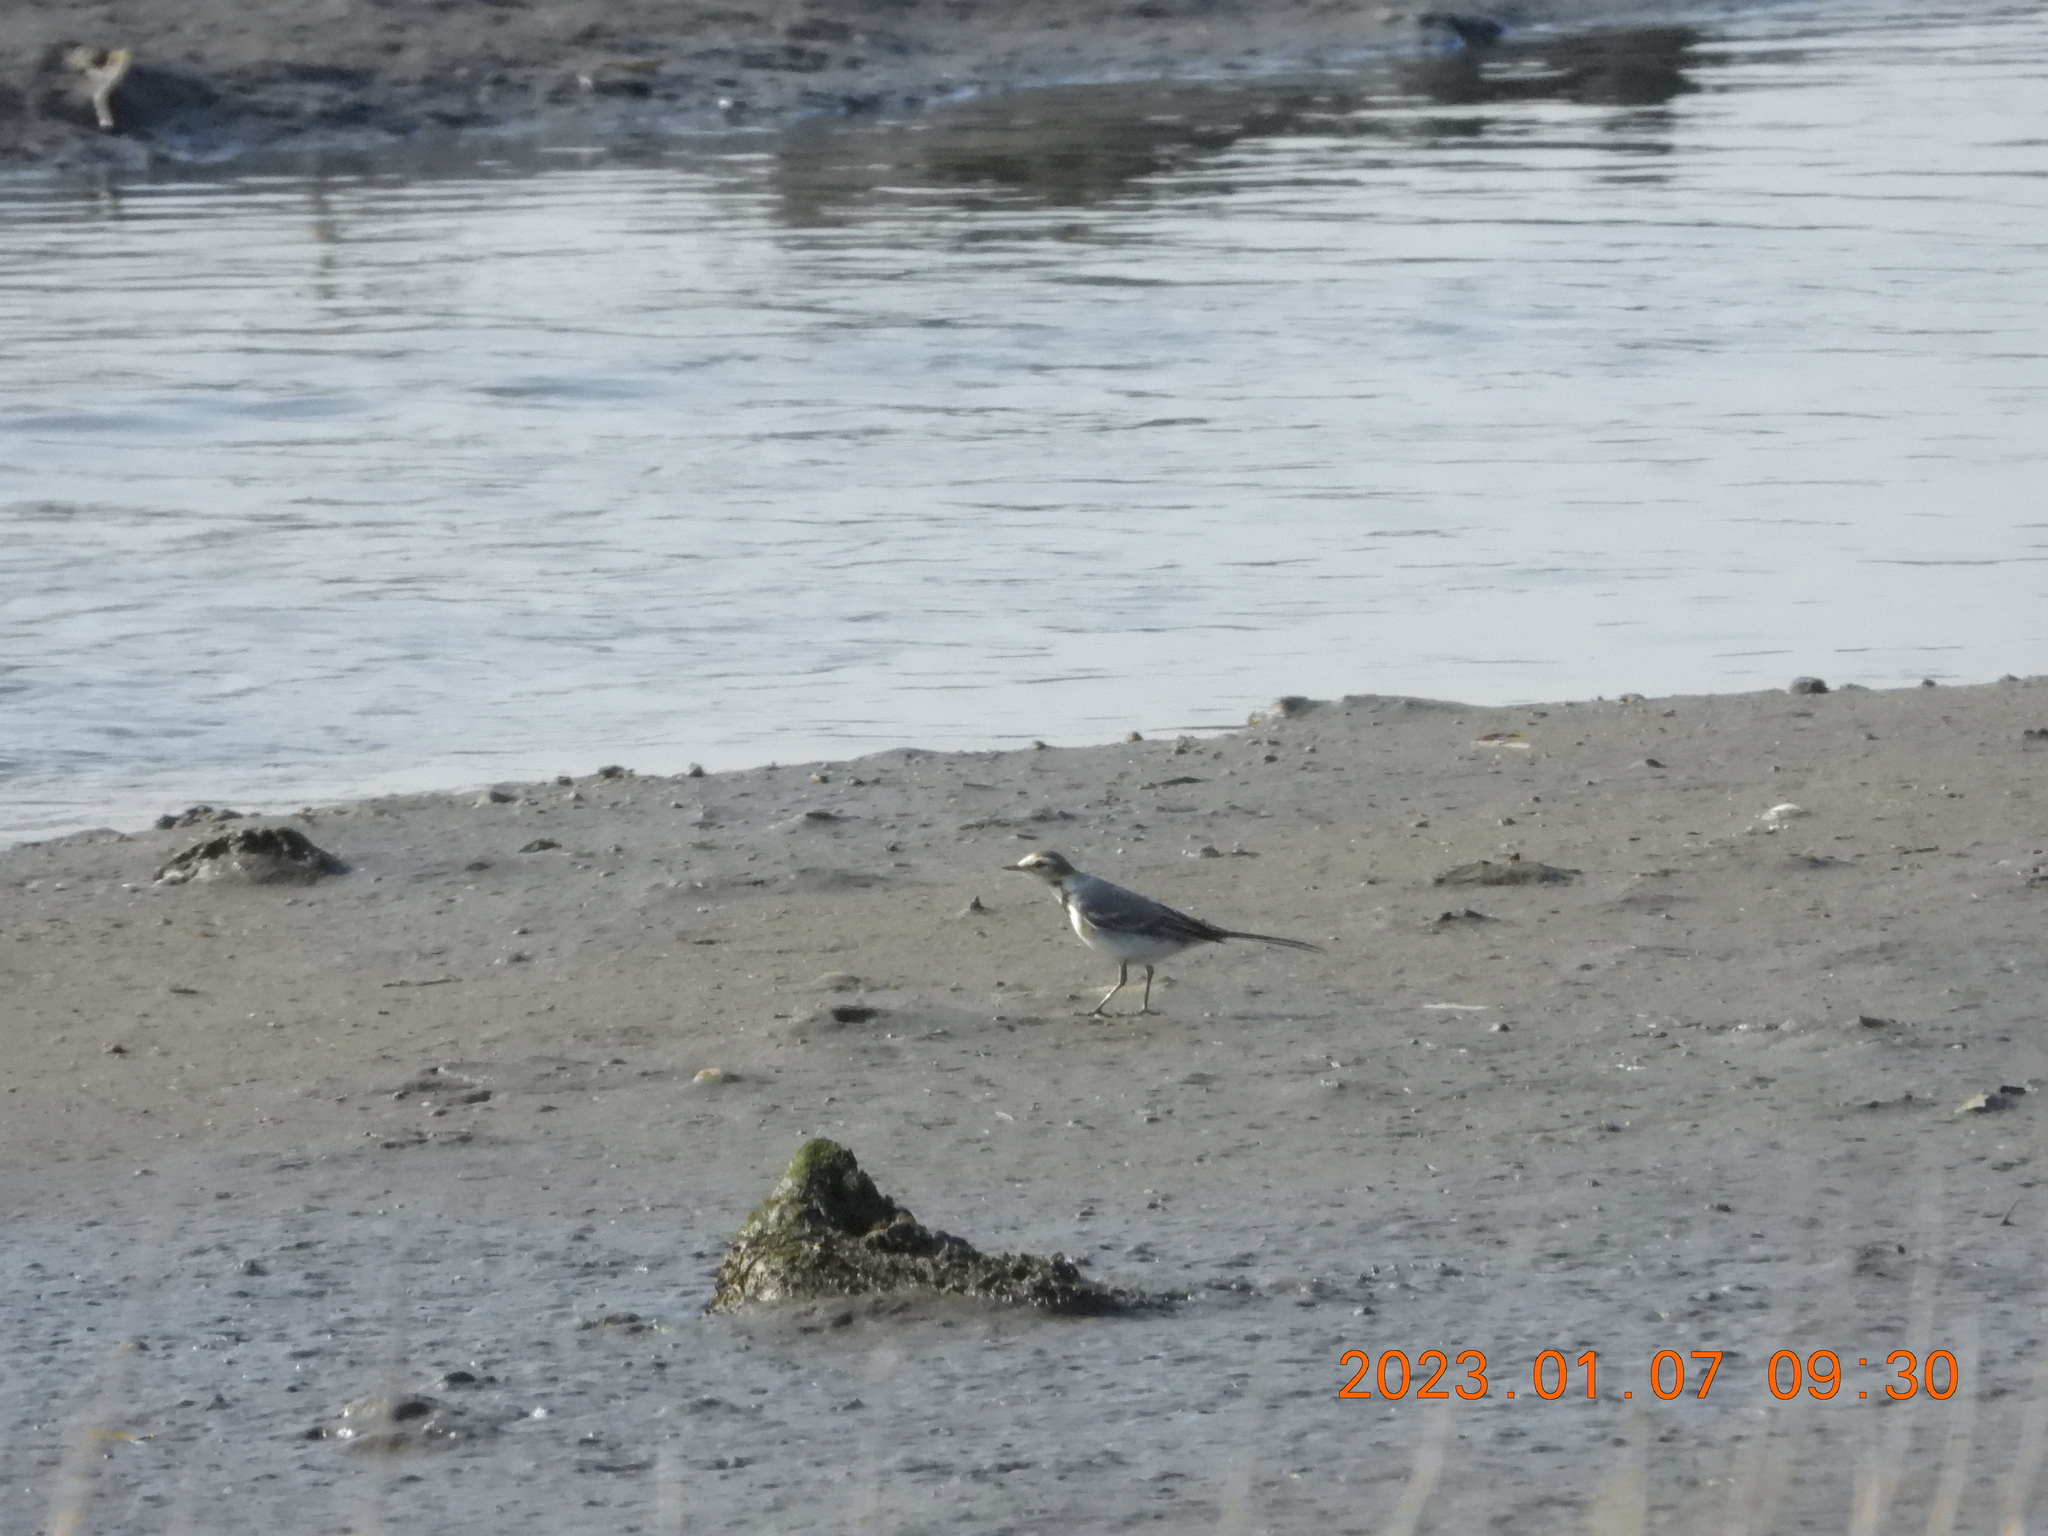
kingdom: Animalia
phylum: Chordata
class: Aves
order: Passeriformes
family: Motacillidae
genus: Motacilla
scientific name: Motacilla alba
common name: White wagtail
